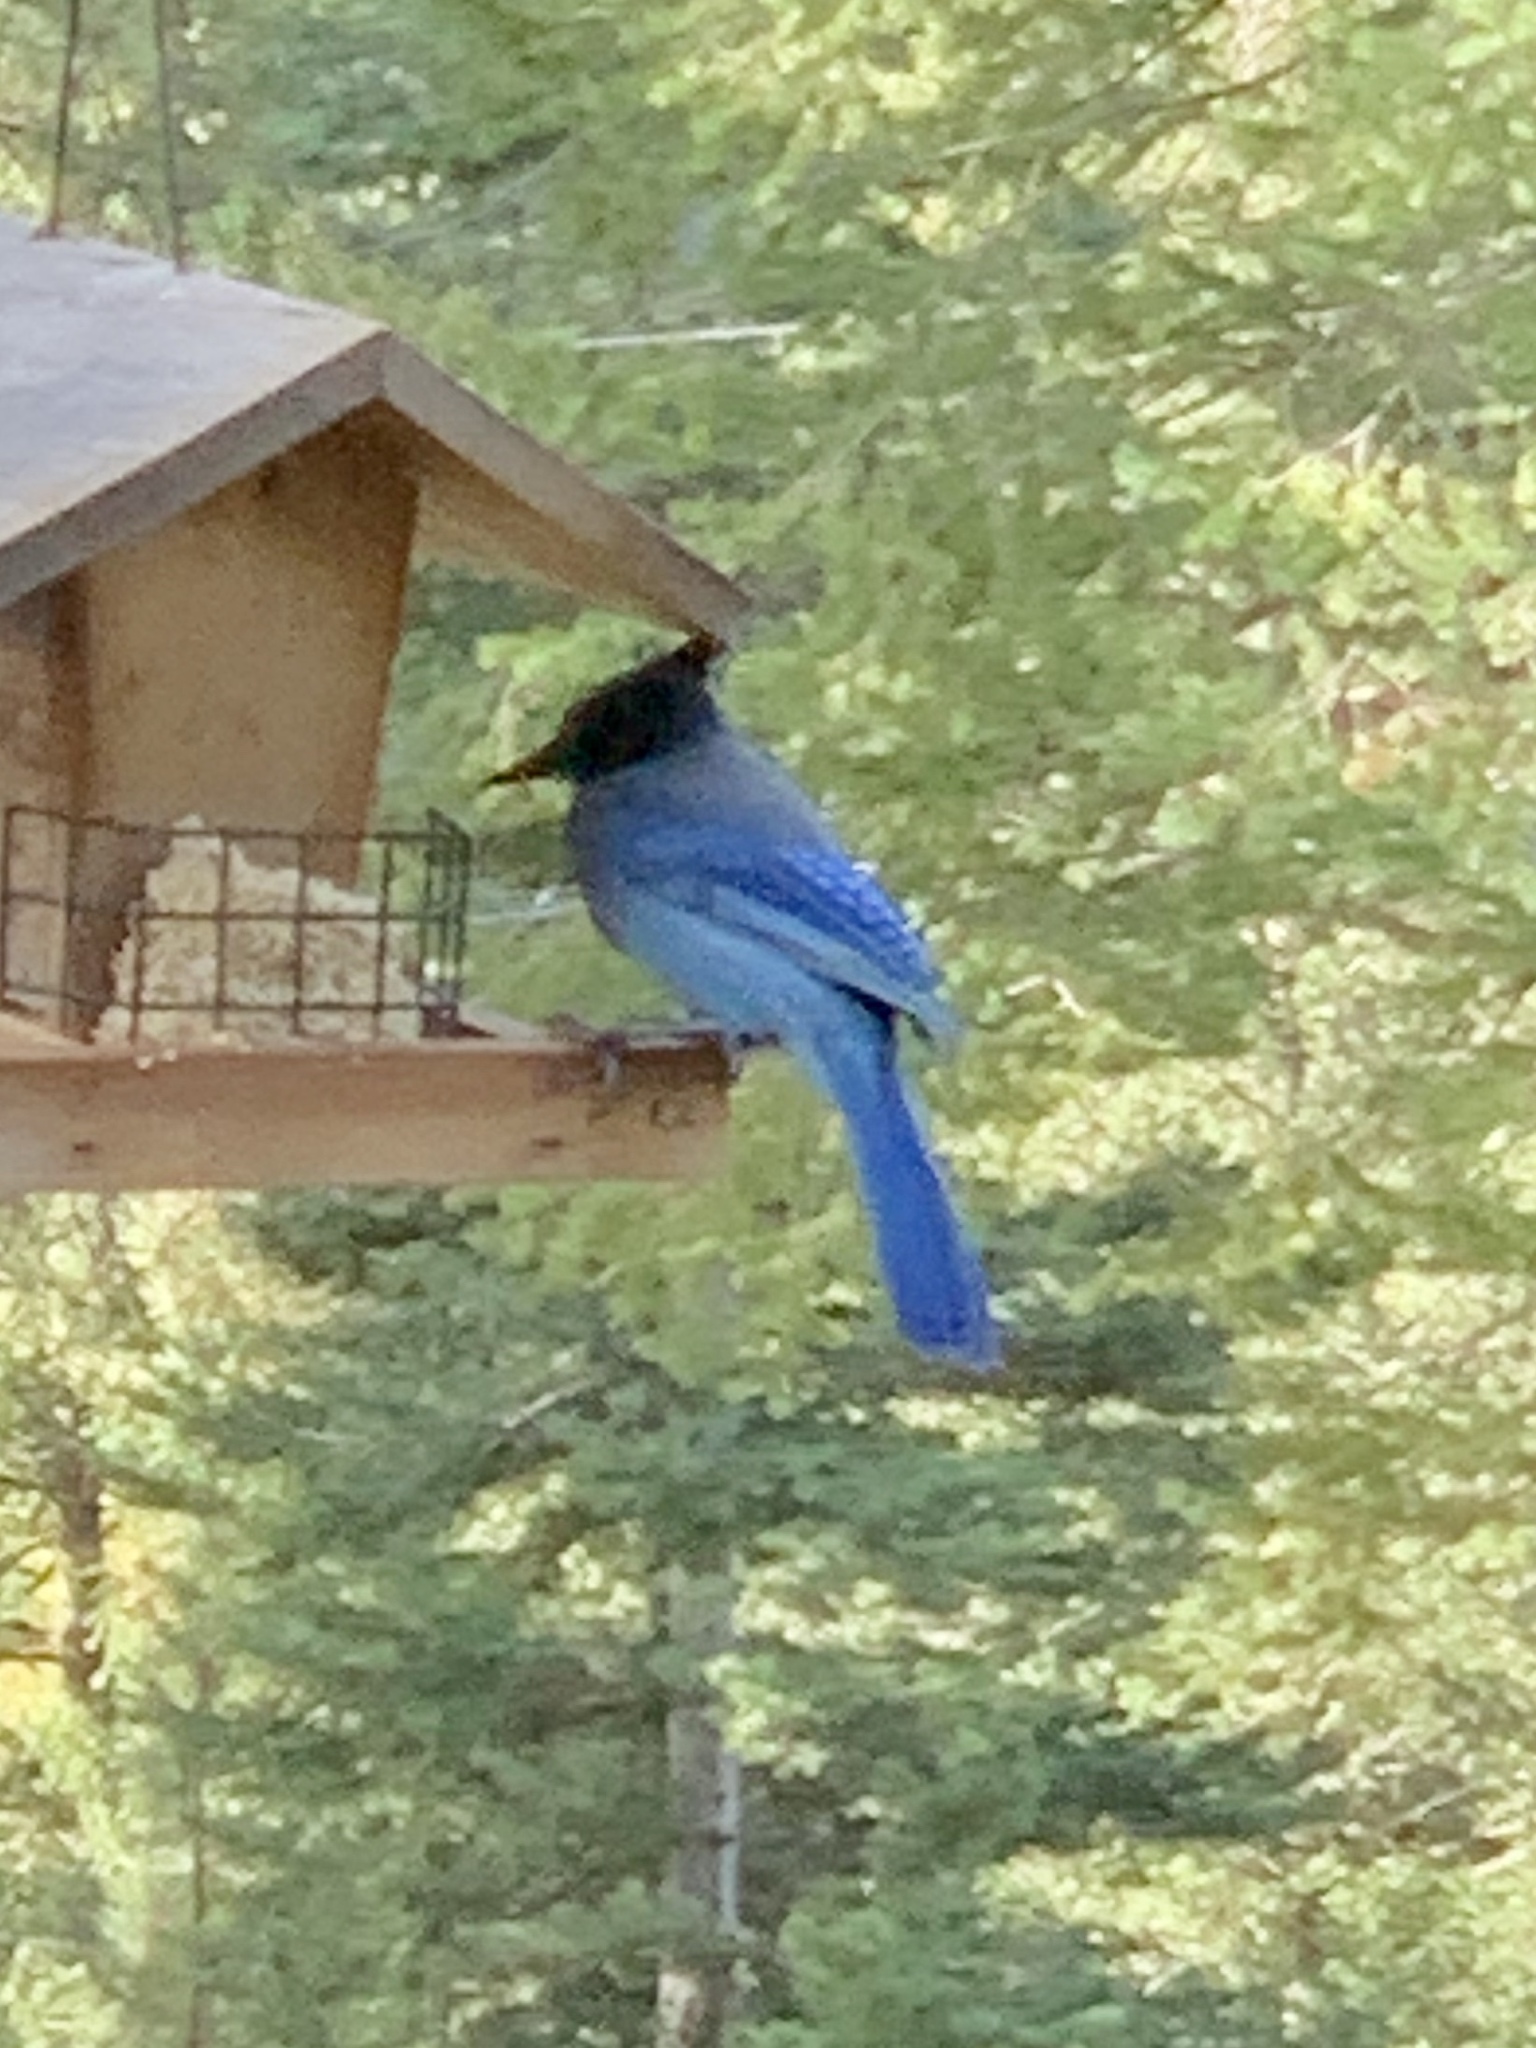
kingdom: Animalia
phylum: Chordata
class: Aves
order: Passeriformes
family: Corvidae
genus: Cyanocitta
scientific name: Cyanocitta stelleri
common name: Steller's jay
